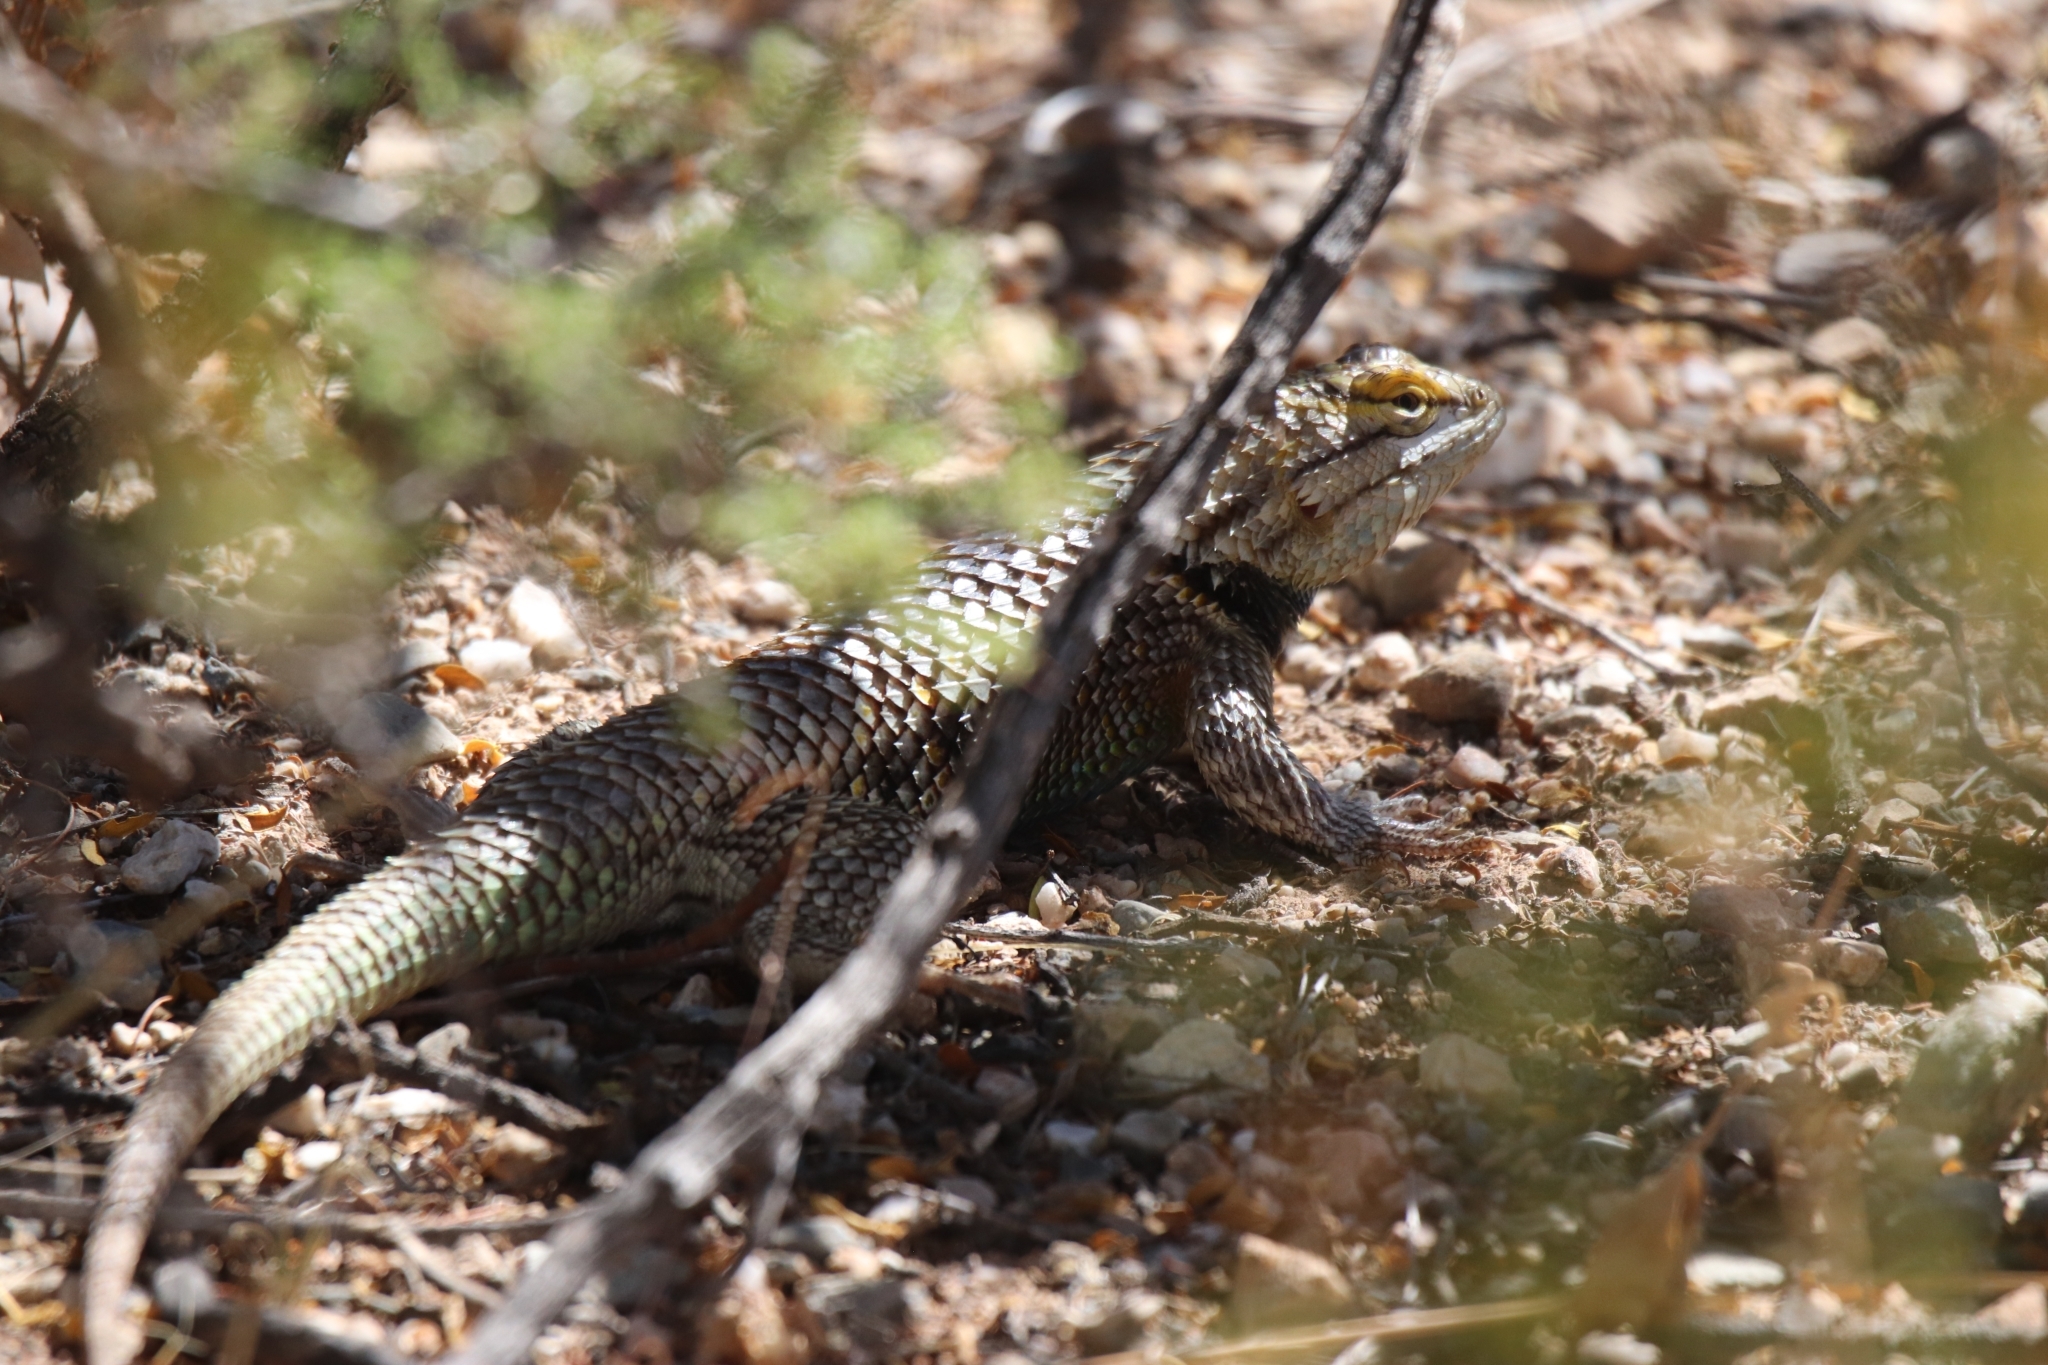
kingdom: Animalia
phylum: Chordata
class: Squamata
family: Phrynosomatidae
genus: Sceloporus
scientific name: Sceloporus magister
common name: Desert spiny lizard
